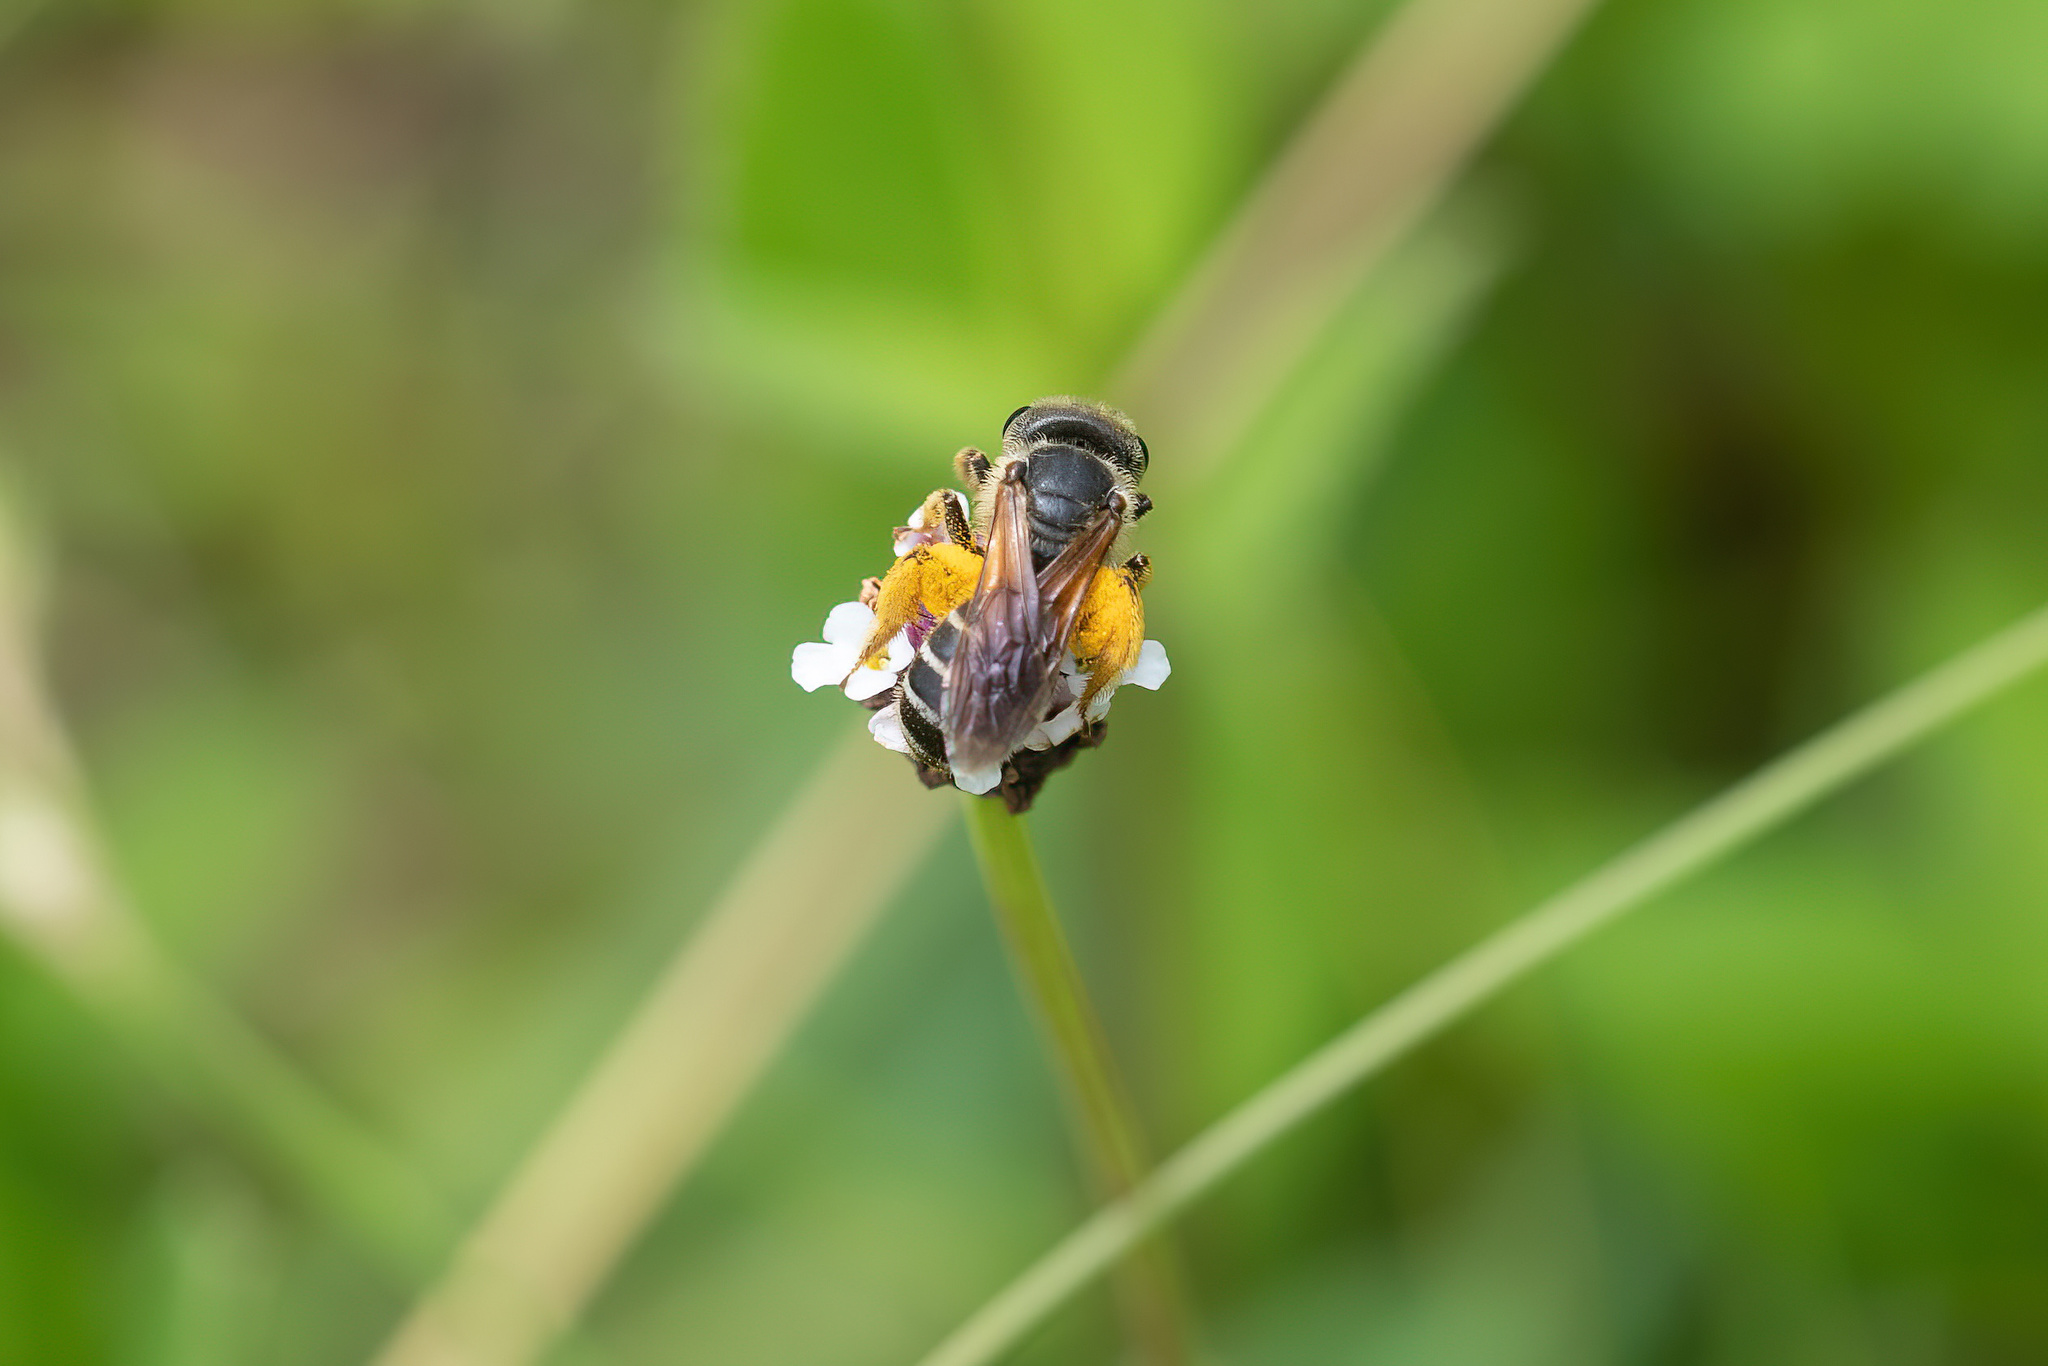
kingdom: Animalia
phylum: Arthropoda
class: Insecta
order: Hymenoptera
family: Halictidae
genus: Halictus
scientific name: Halictus poeyi
